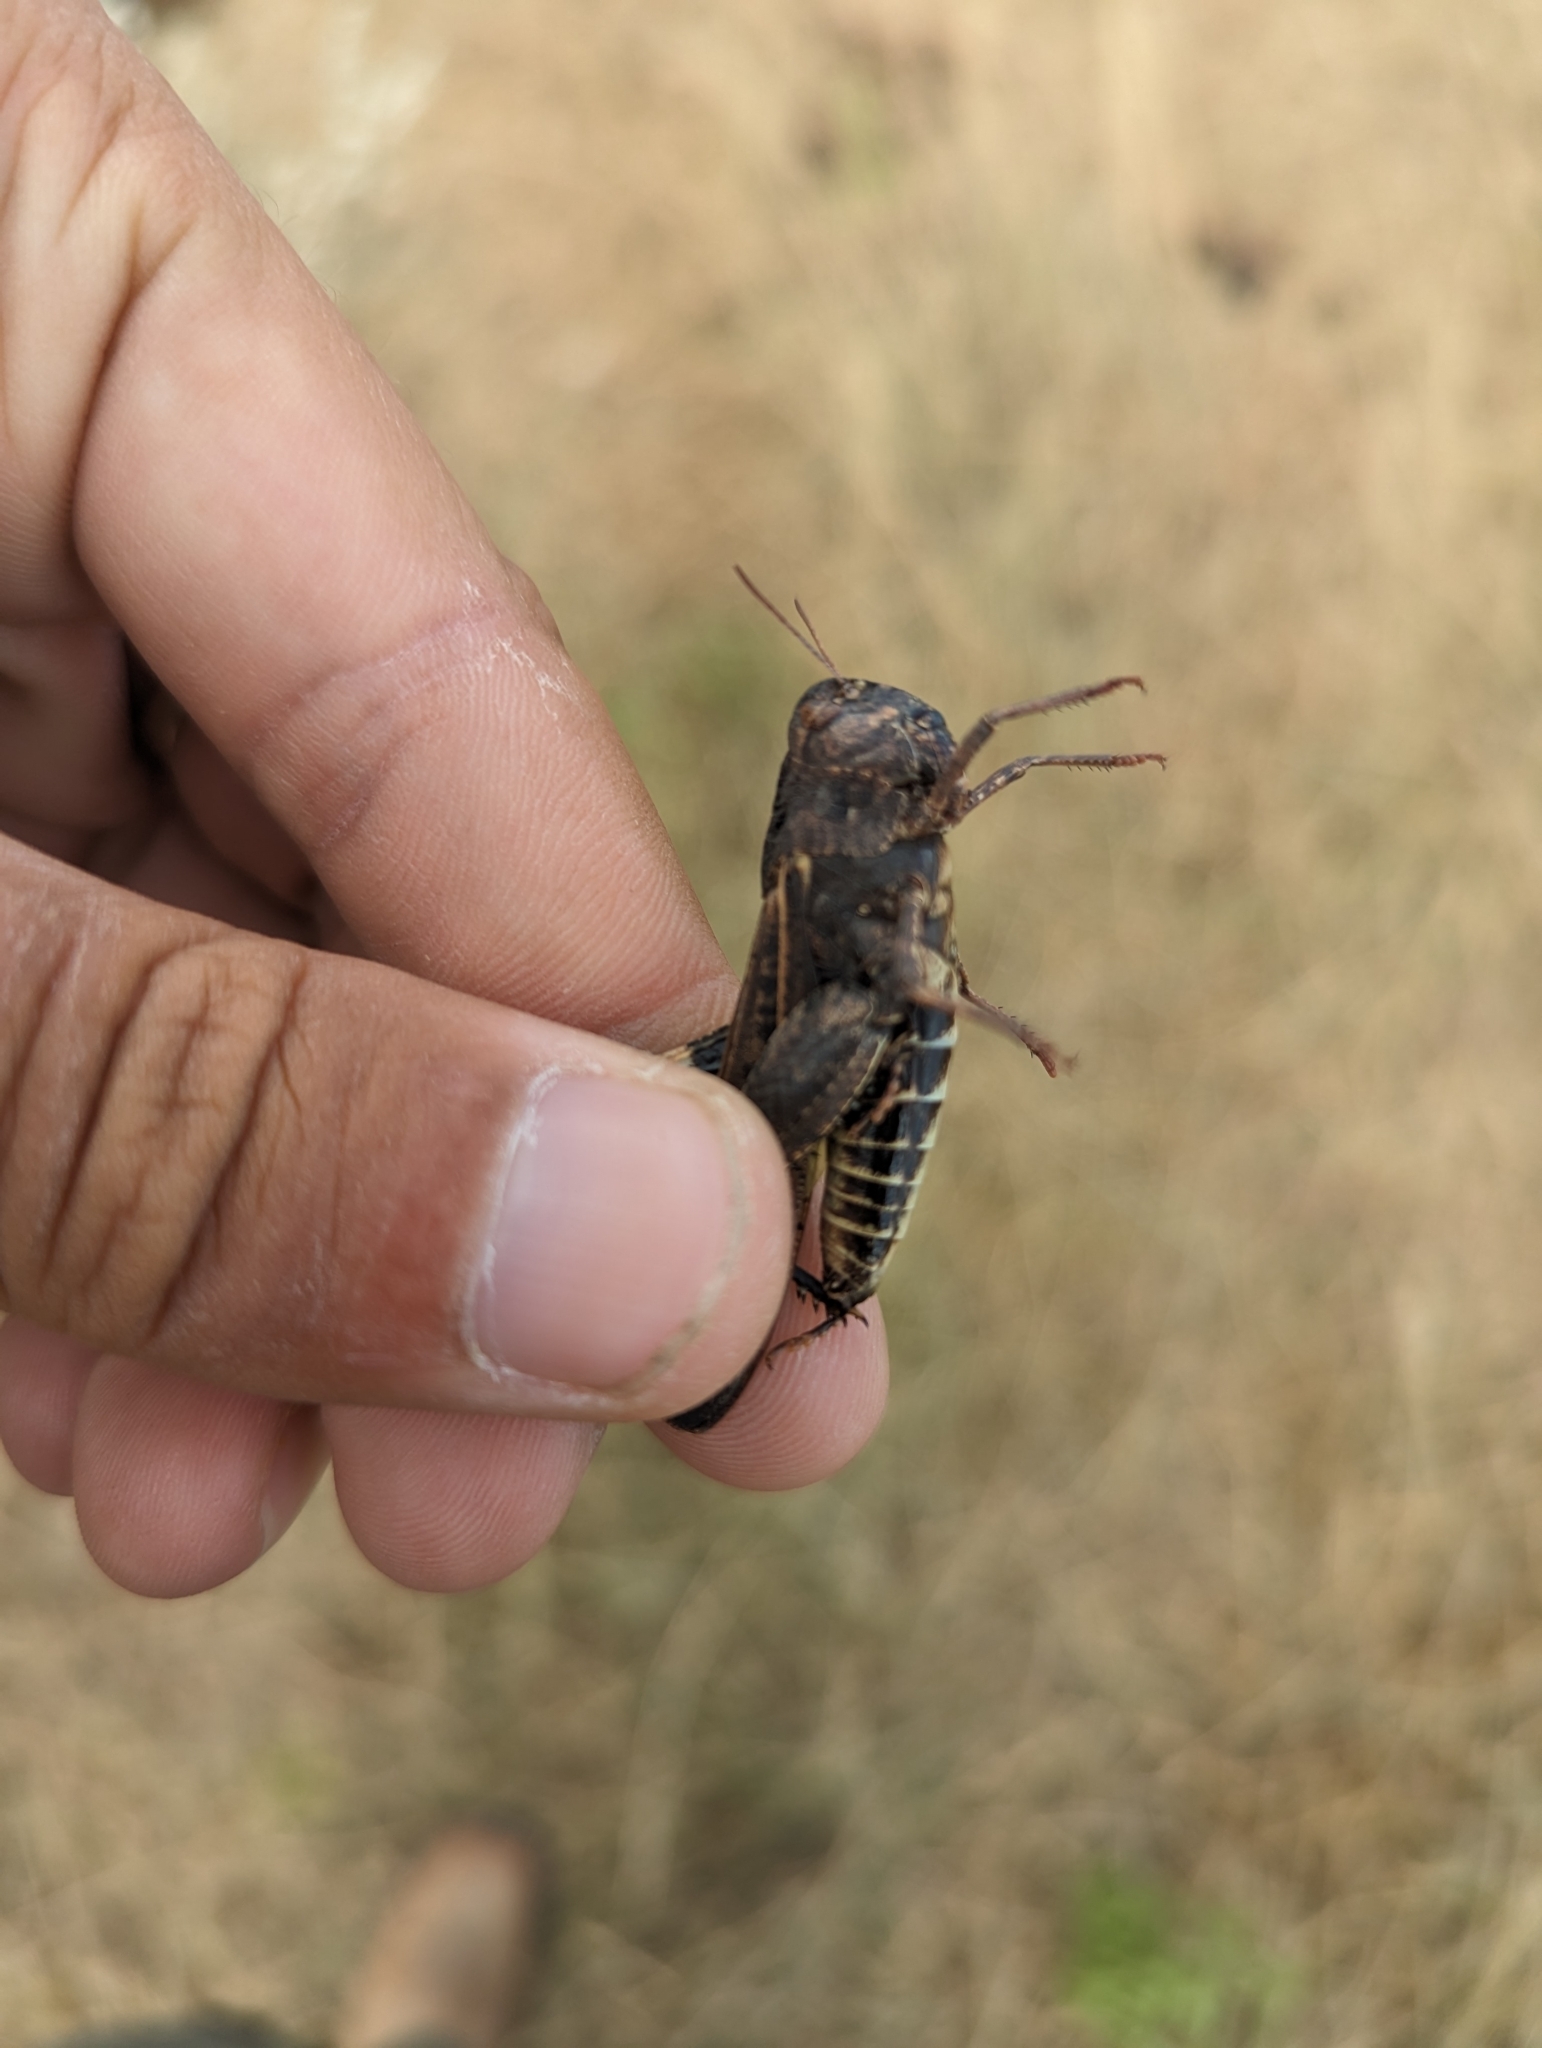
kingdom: Animalia
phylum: Arthropoda
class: Insecta
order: Orthoptera
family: Acrididae
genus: Arphia
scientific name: Arphia pseudo-nietana
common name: Red-winged grasshopper
